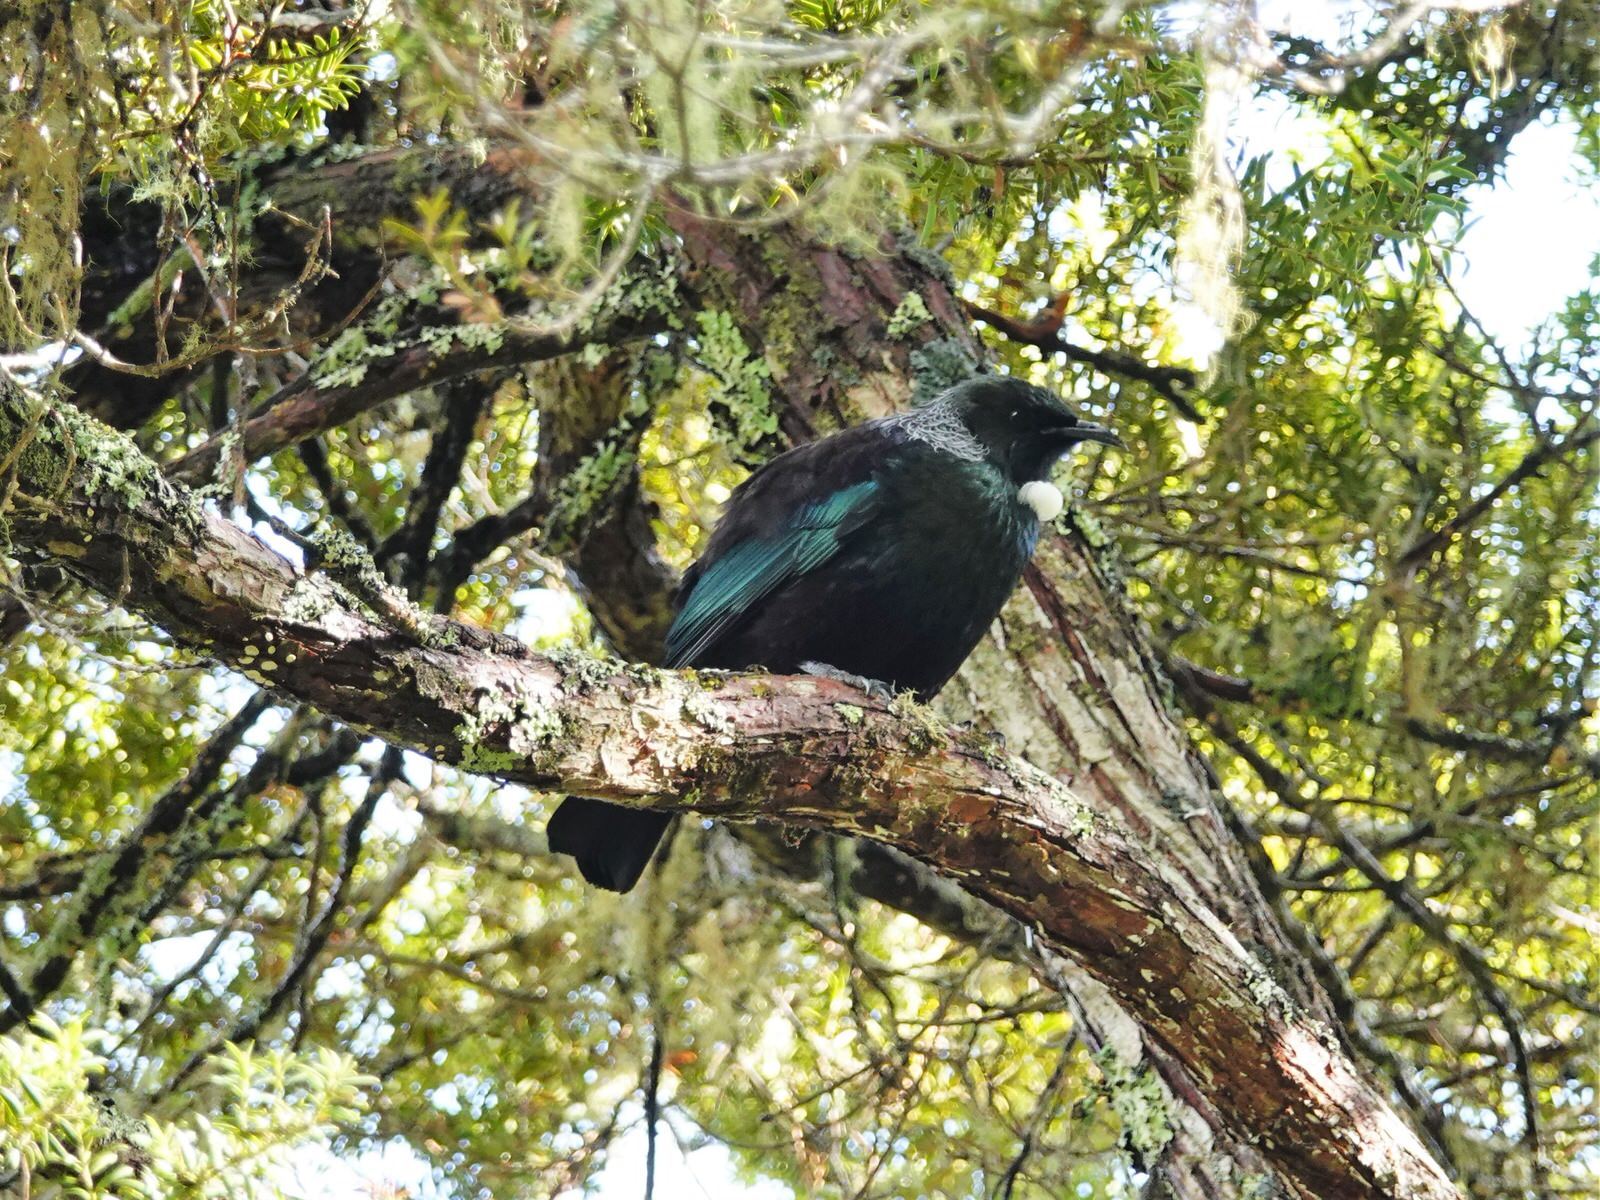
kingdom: Animalia
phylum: Chordata
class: Aves
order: Passeriformes
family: Meliphagidae
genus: Prosthemadera
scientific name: Prosthemadera novaeseelandiae
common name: Tui
